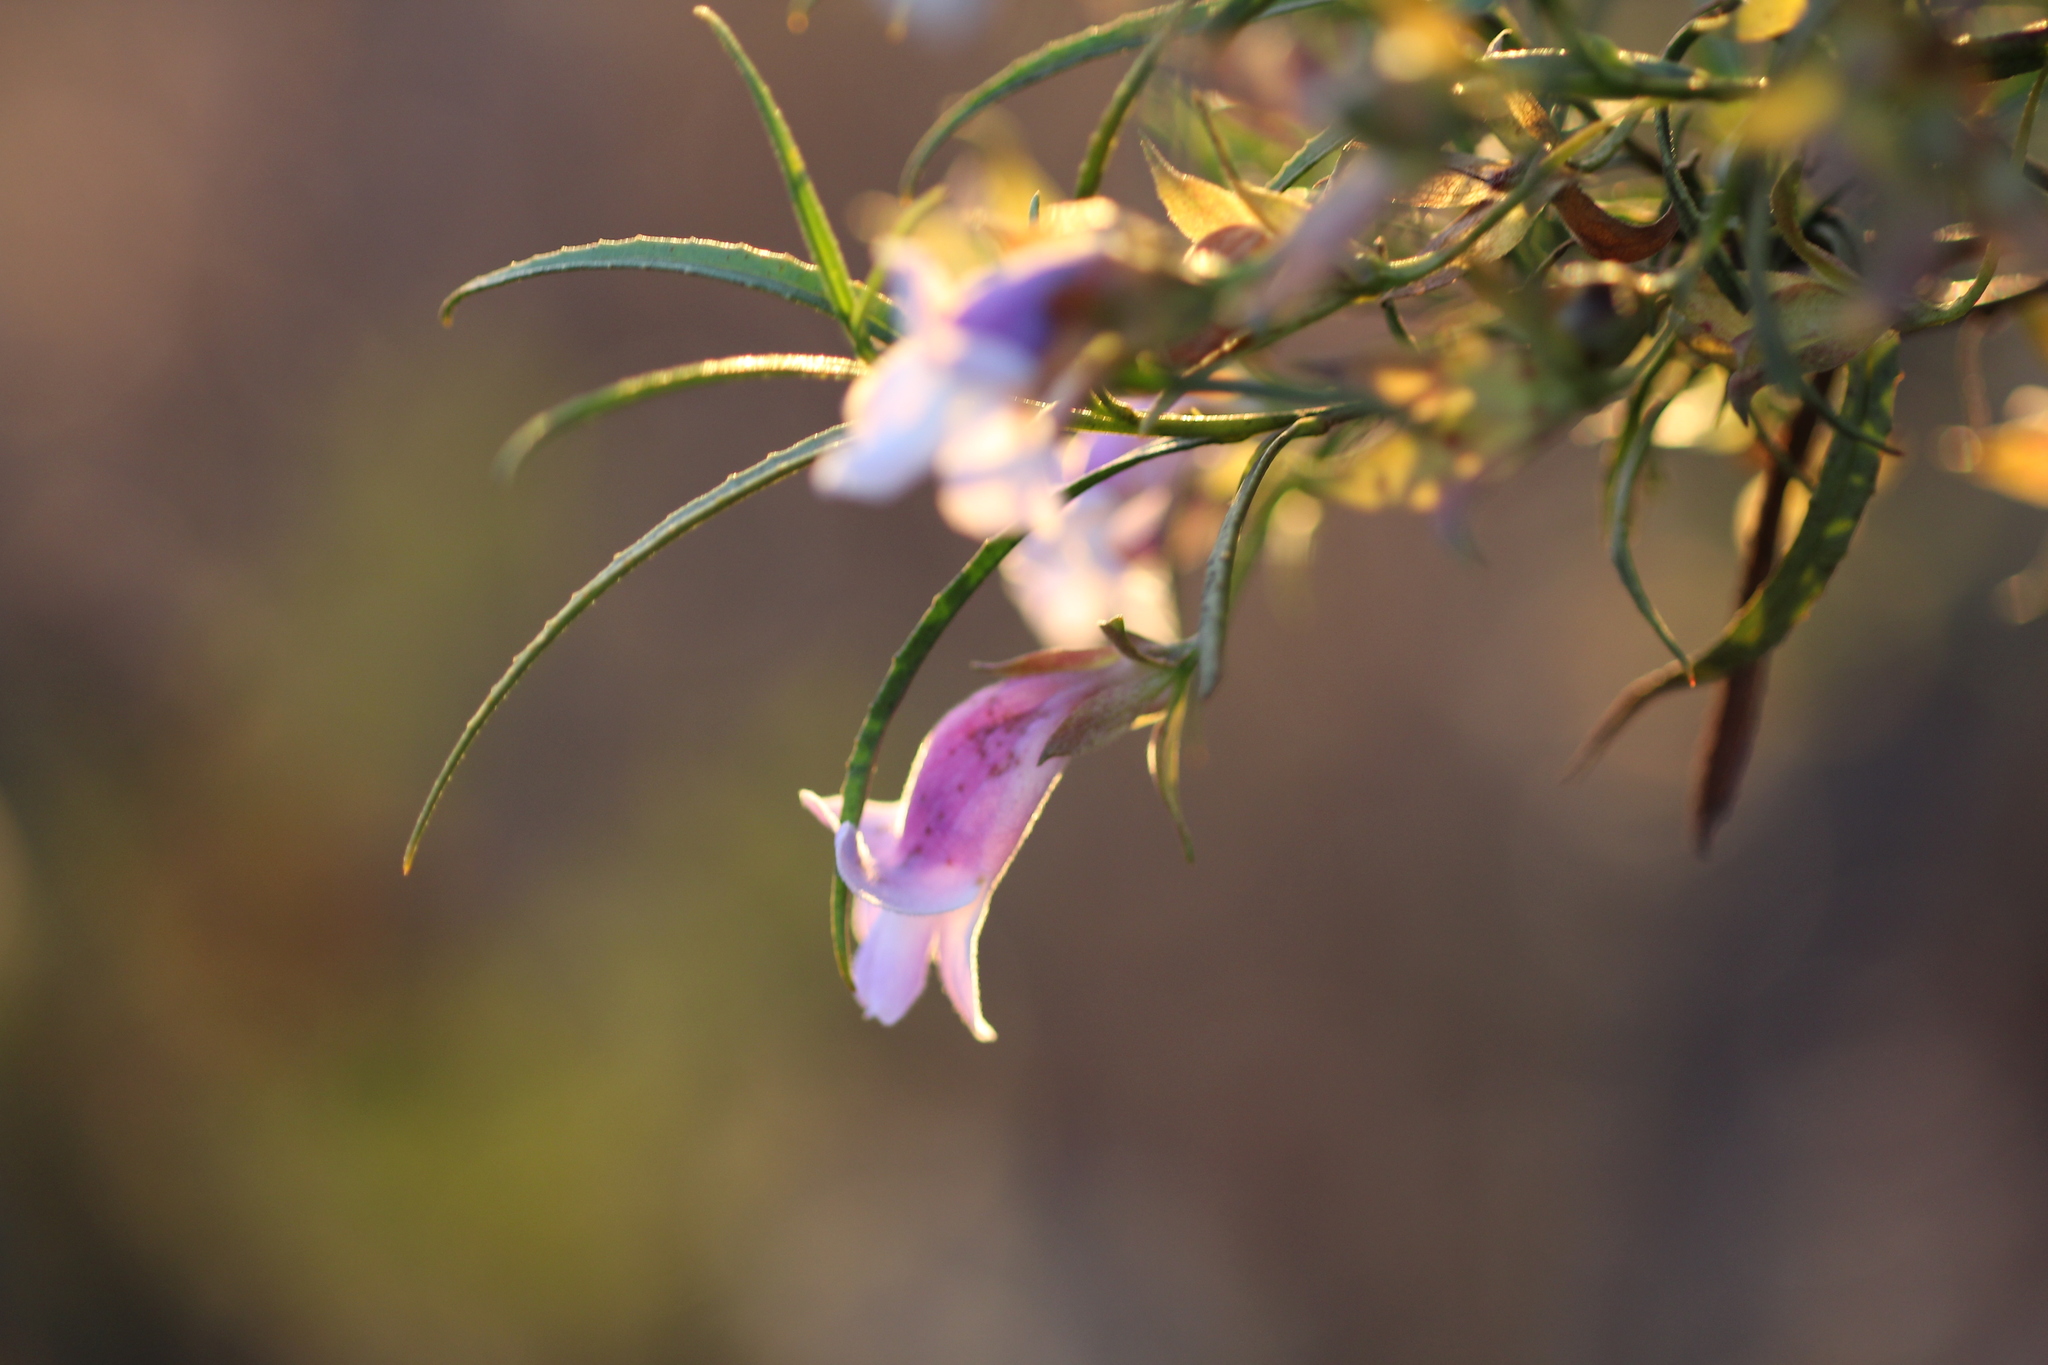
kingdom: Plantae
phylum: Tracheophyta
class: Magnoliopsida
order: Lamiales
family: Scrophulariaceae
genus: Eremophila
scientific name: Eremophila clarkei
